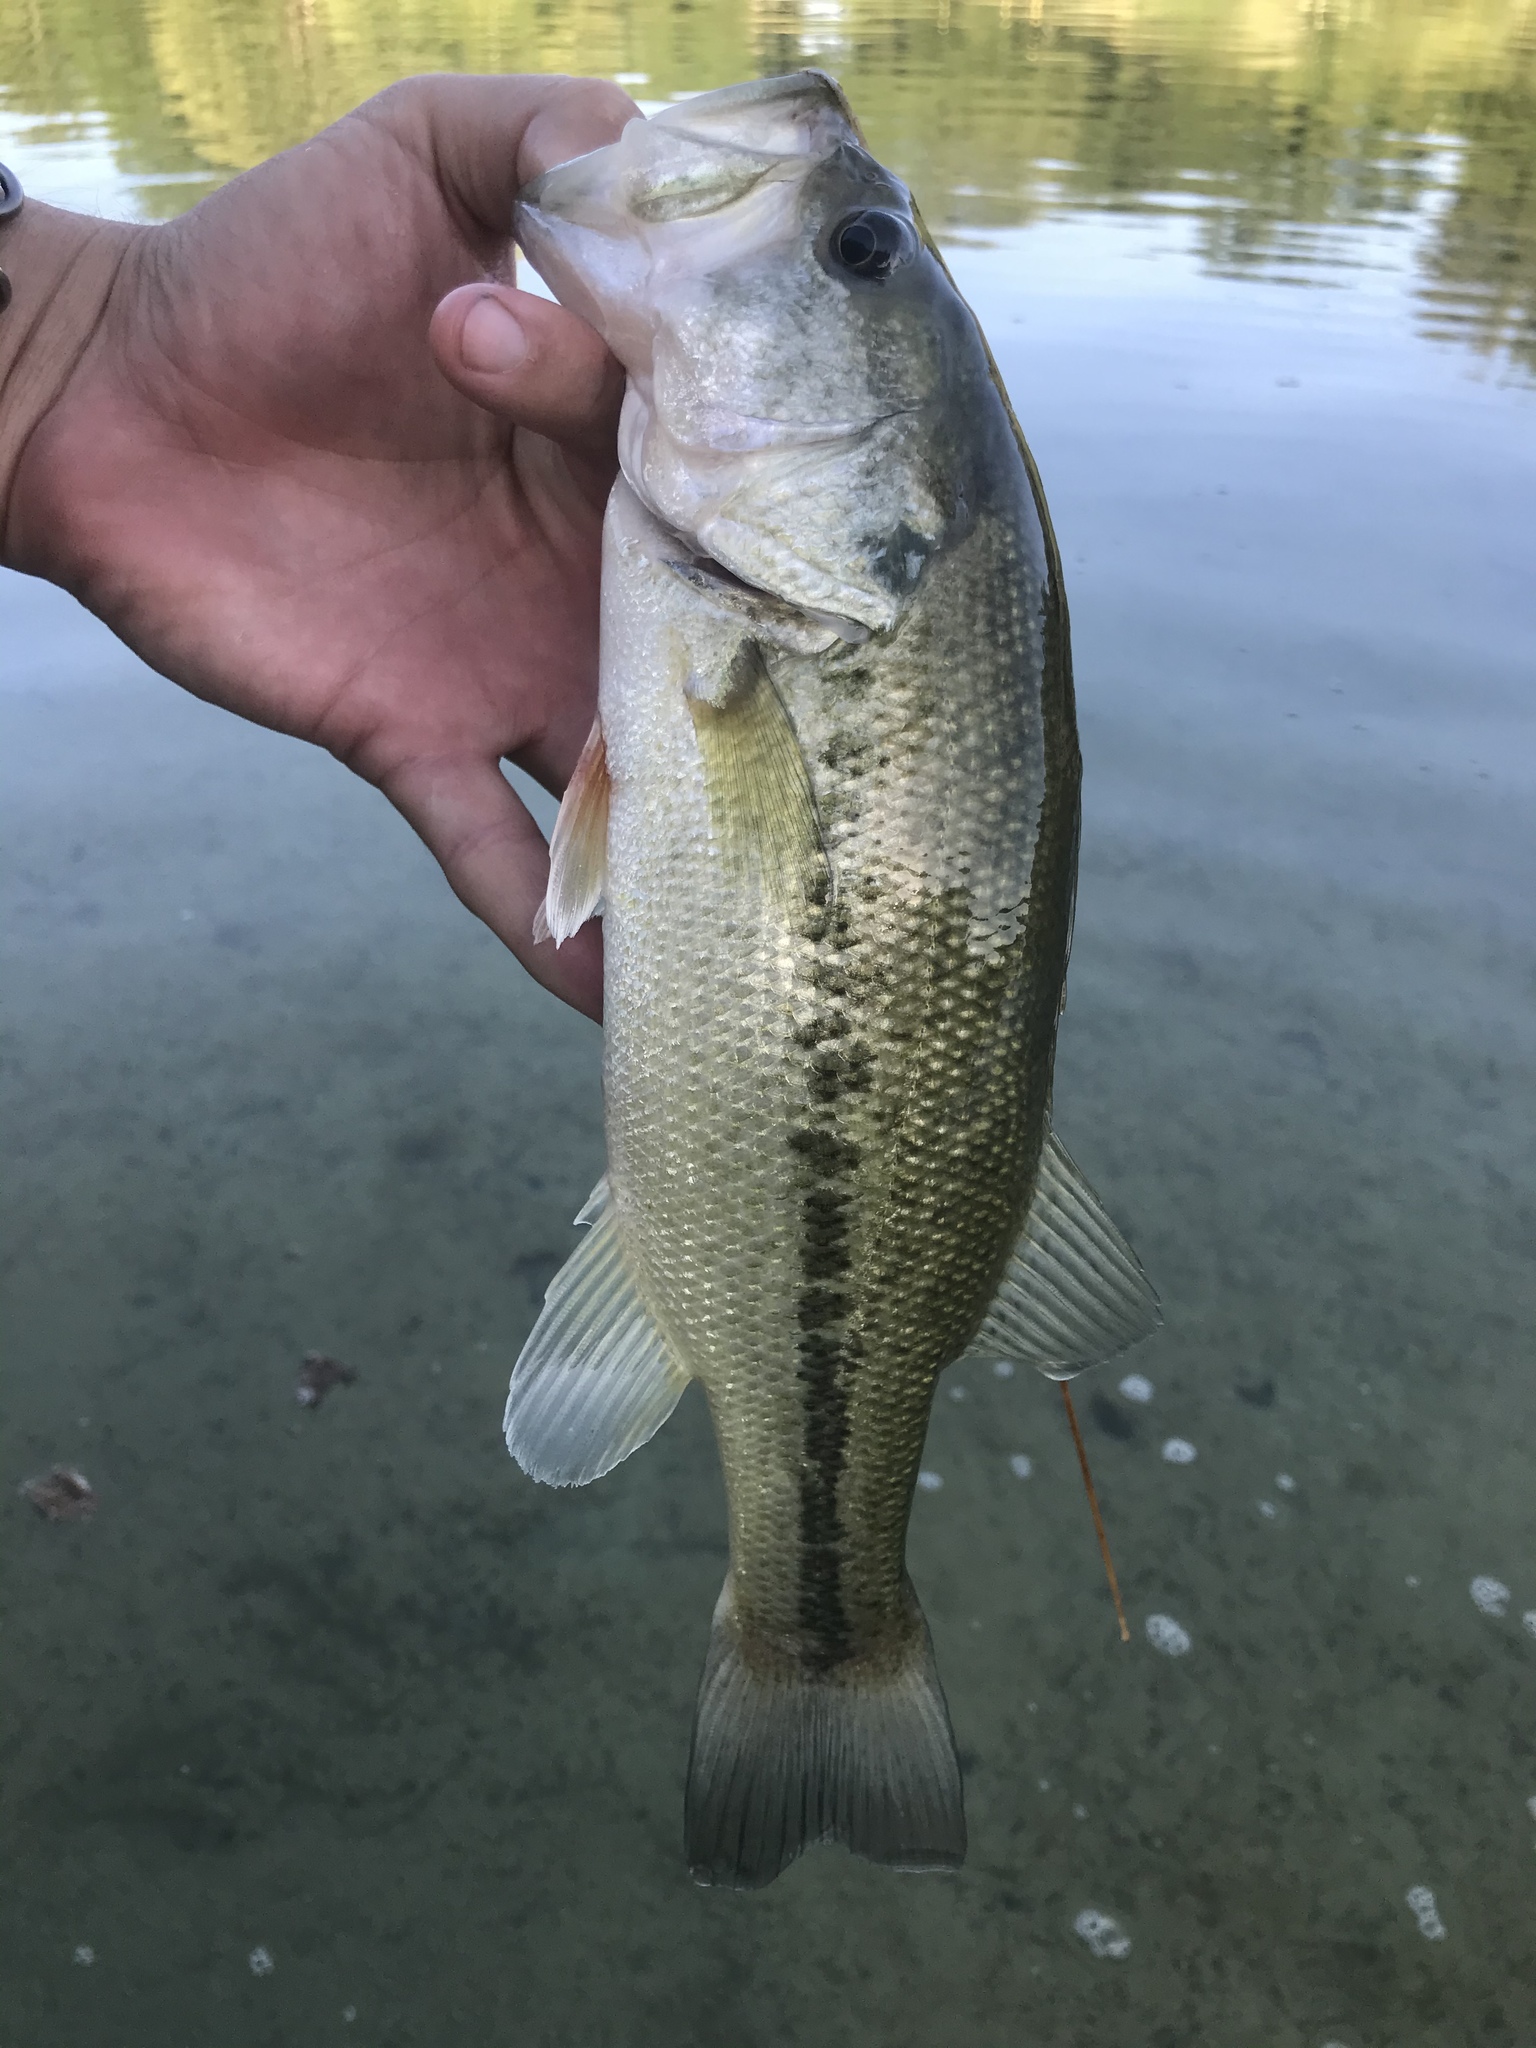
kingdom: Animalia
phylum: Chordata
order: Perciformes
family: Centrarchidae
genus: Micropterus
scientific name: Micropterus
